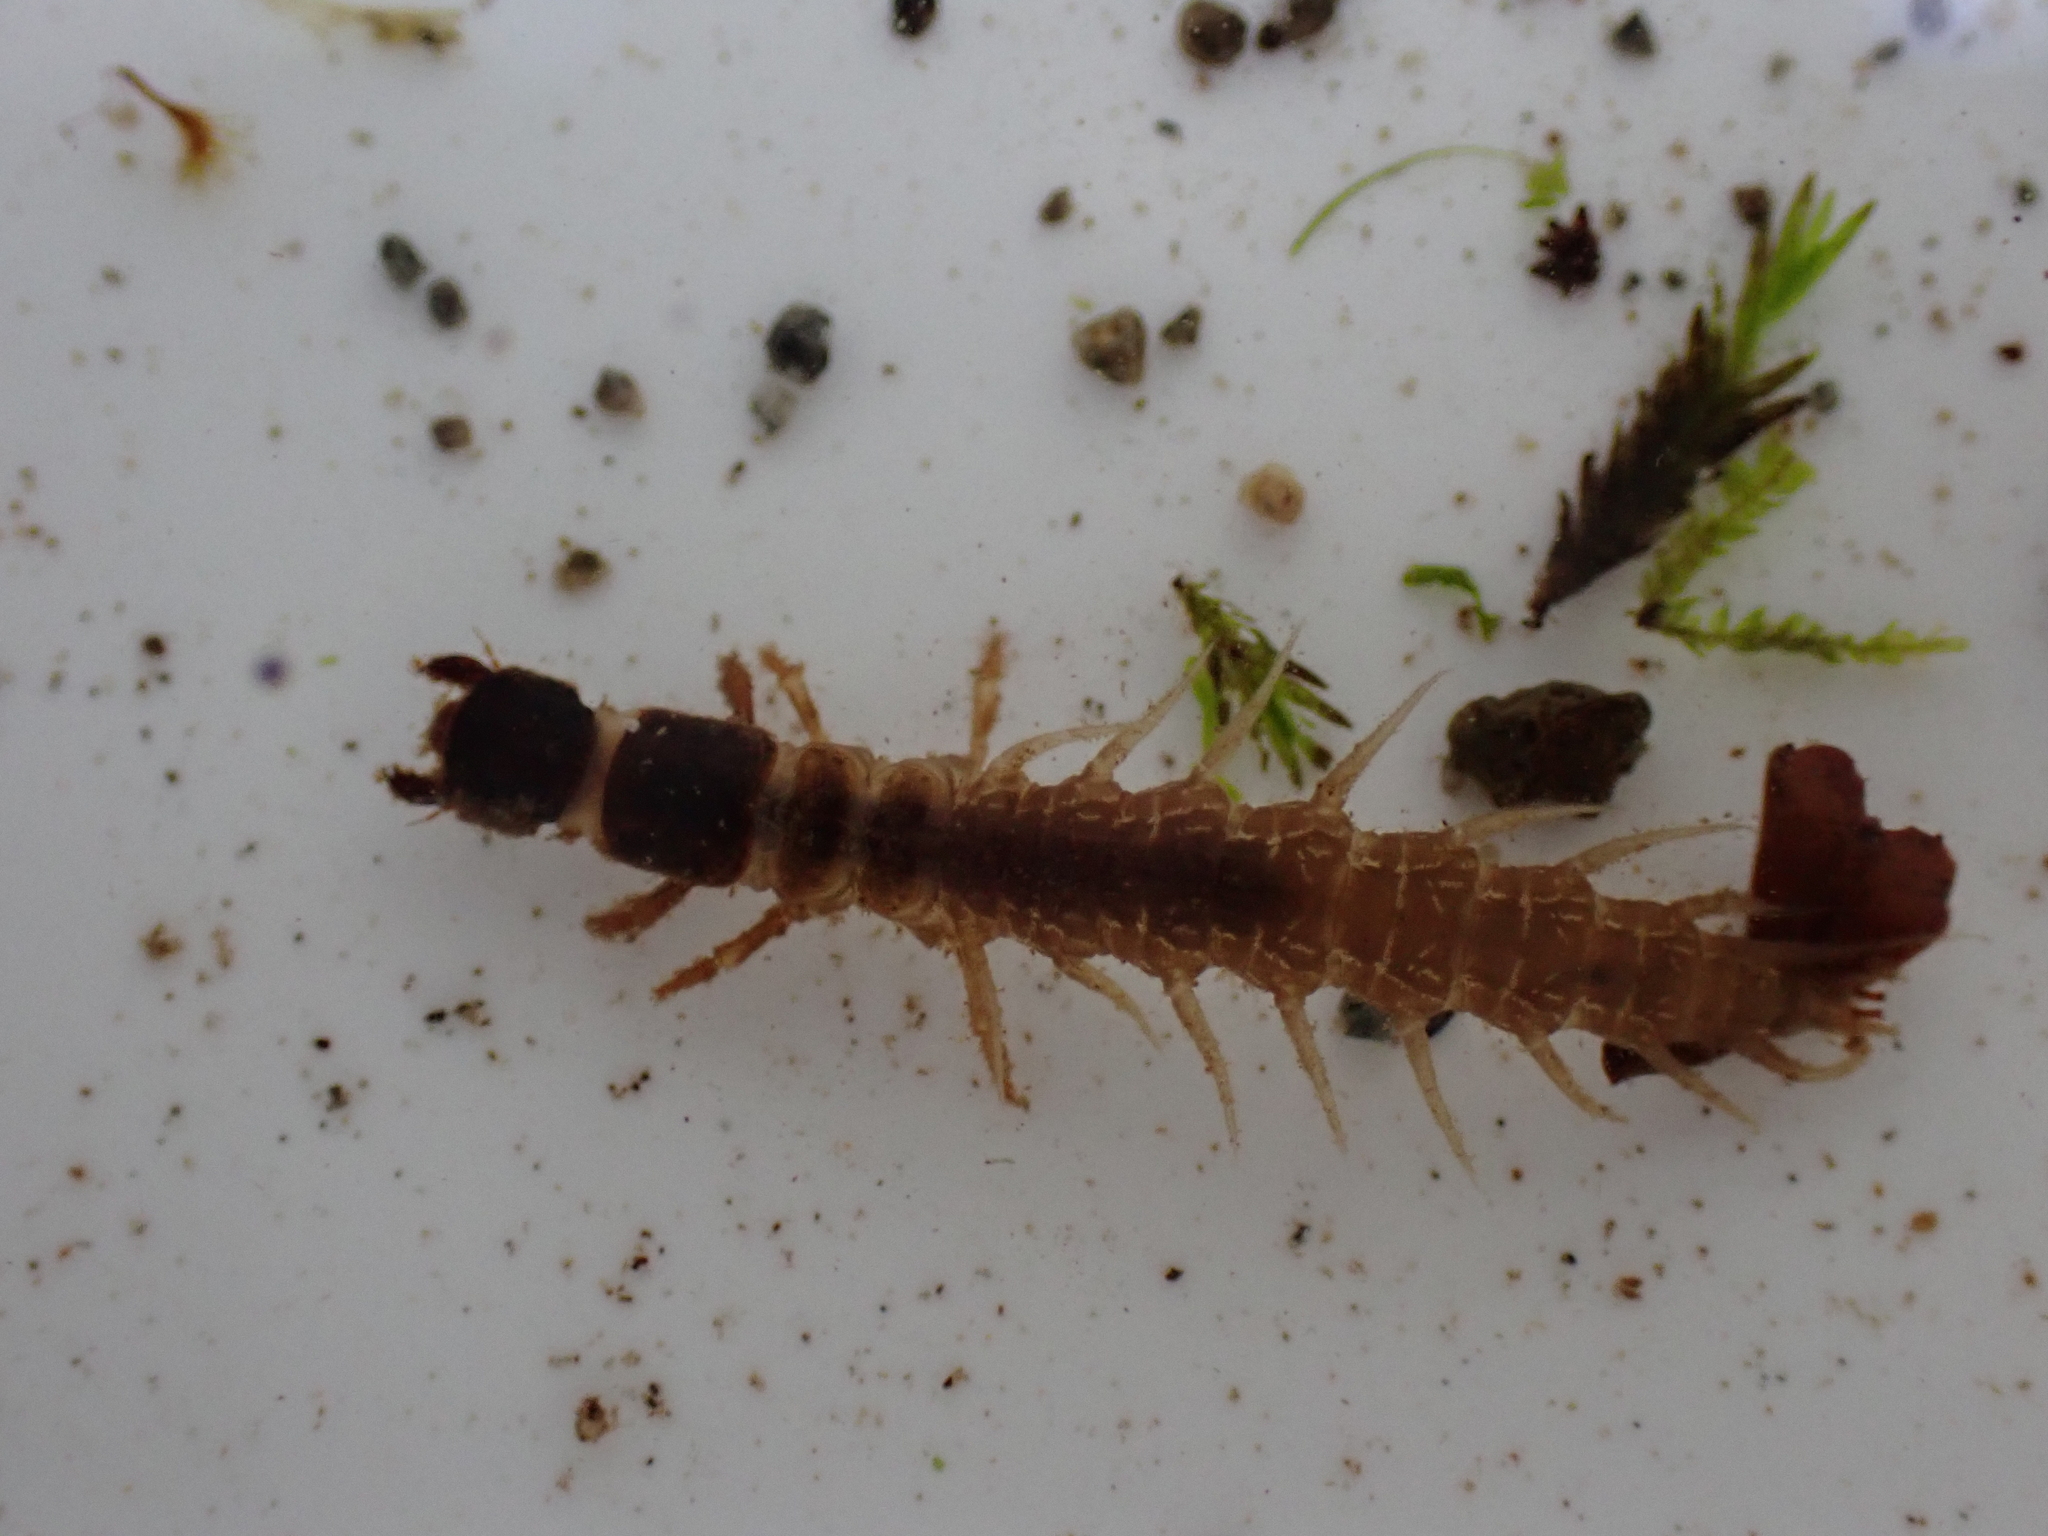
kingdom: Animalia
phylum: Arthropoda
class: Insecta
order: Megaloptera
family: Corydalidae
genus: Archichauliodes
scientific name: Archichauliodes diversus
